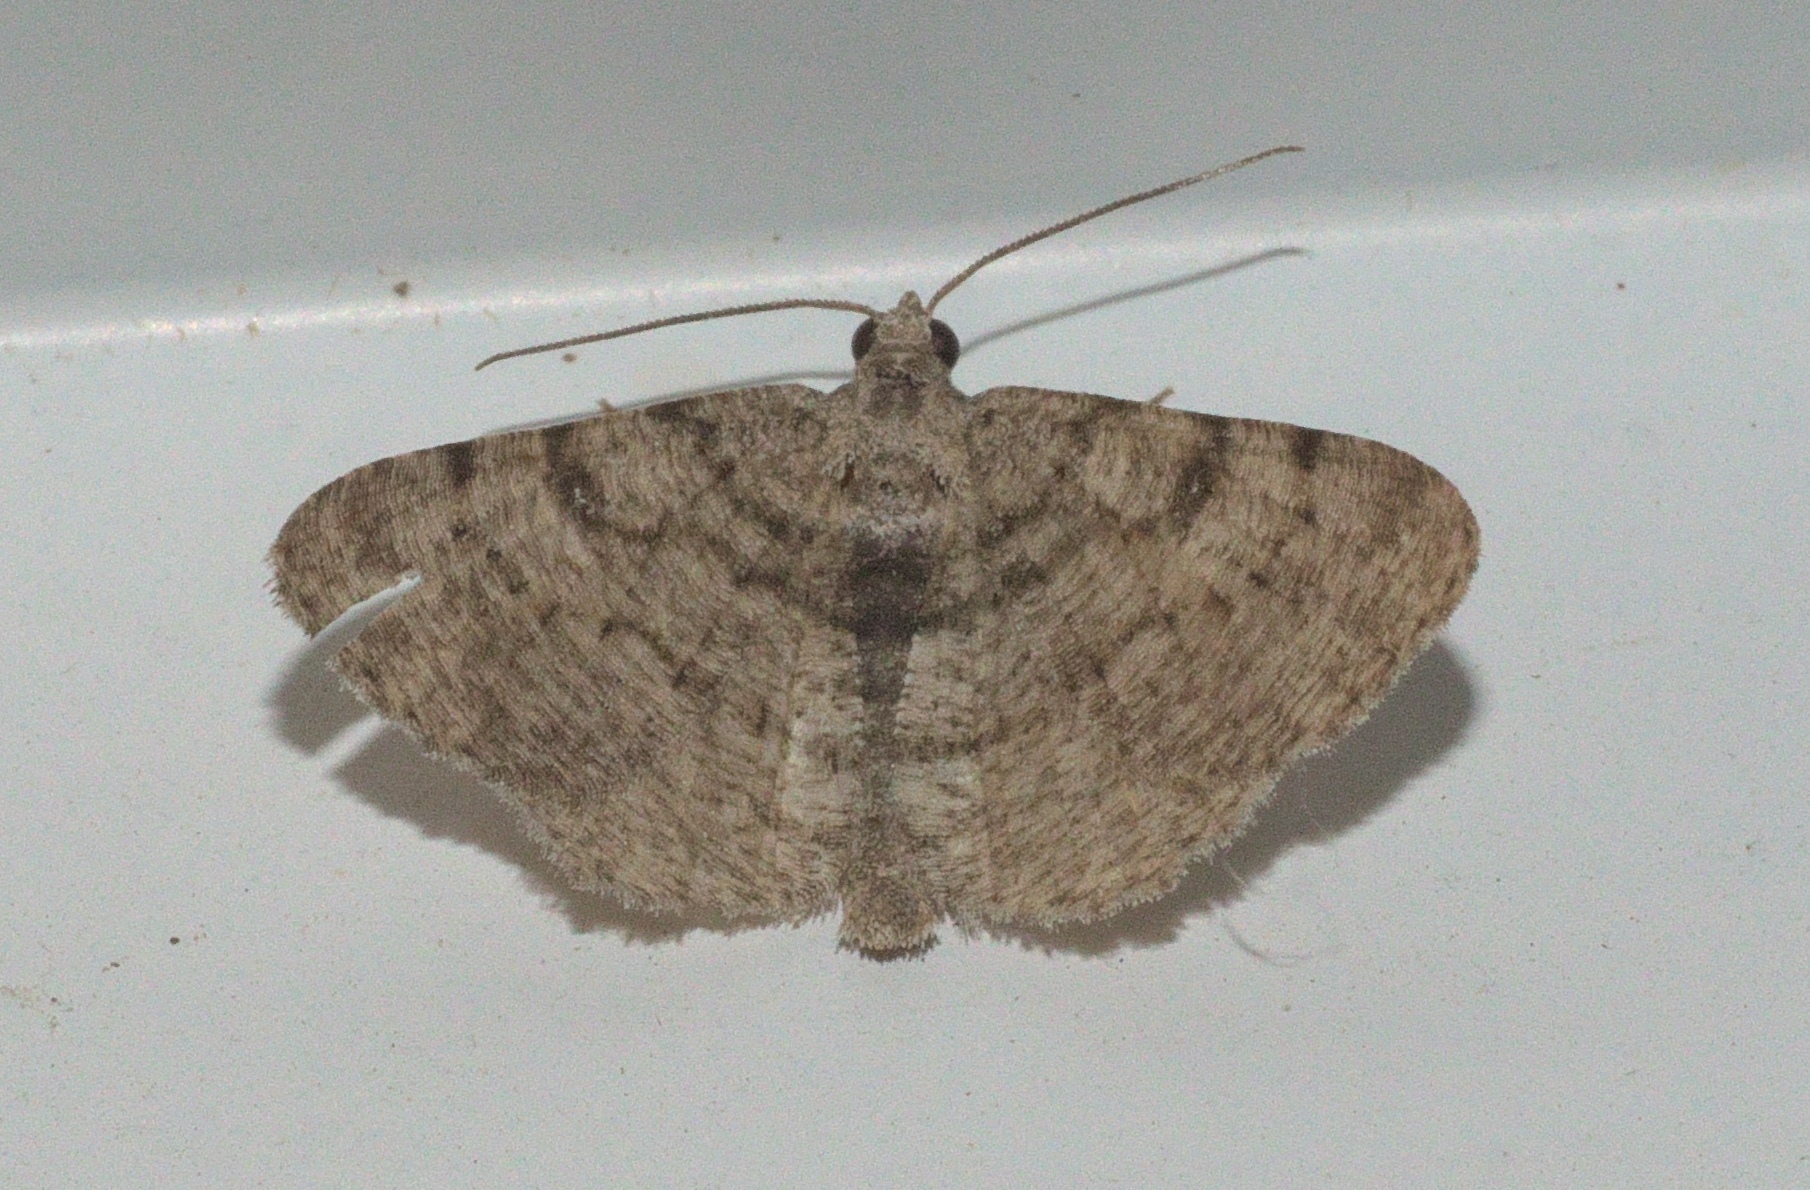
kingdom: Animalia
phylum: Arthropoda
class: Insecta
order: Lepidoptera
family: Geometridae
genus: Digrammia
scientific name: Digrammia gnophosaria
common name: Hollow-spotted angle
